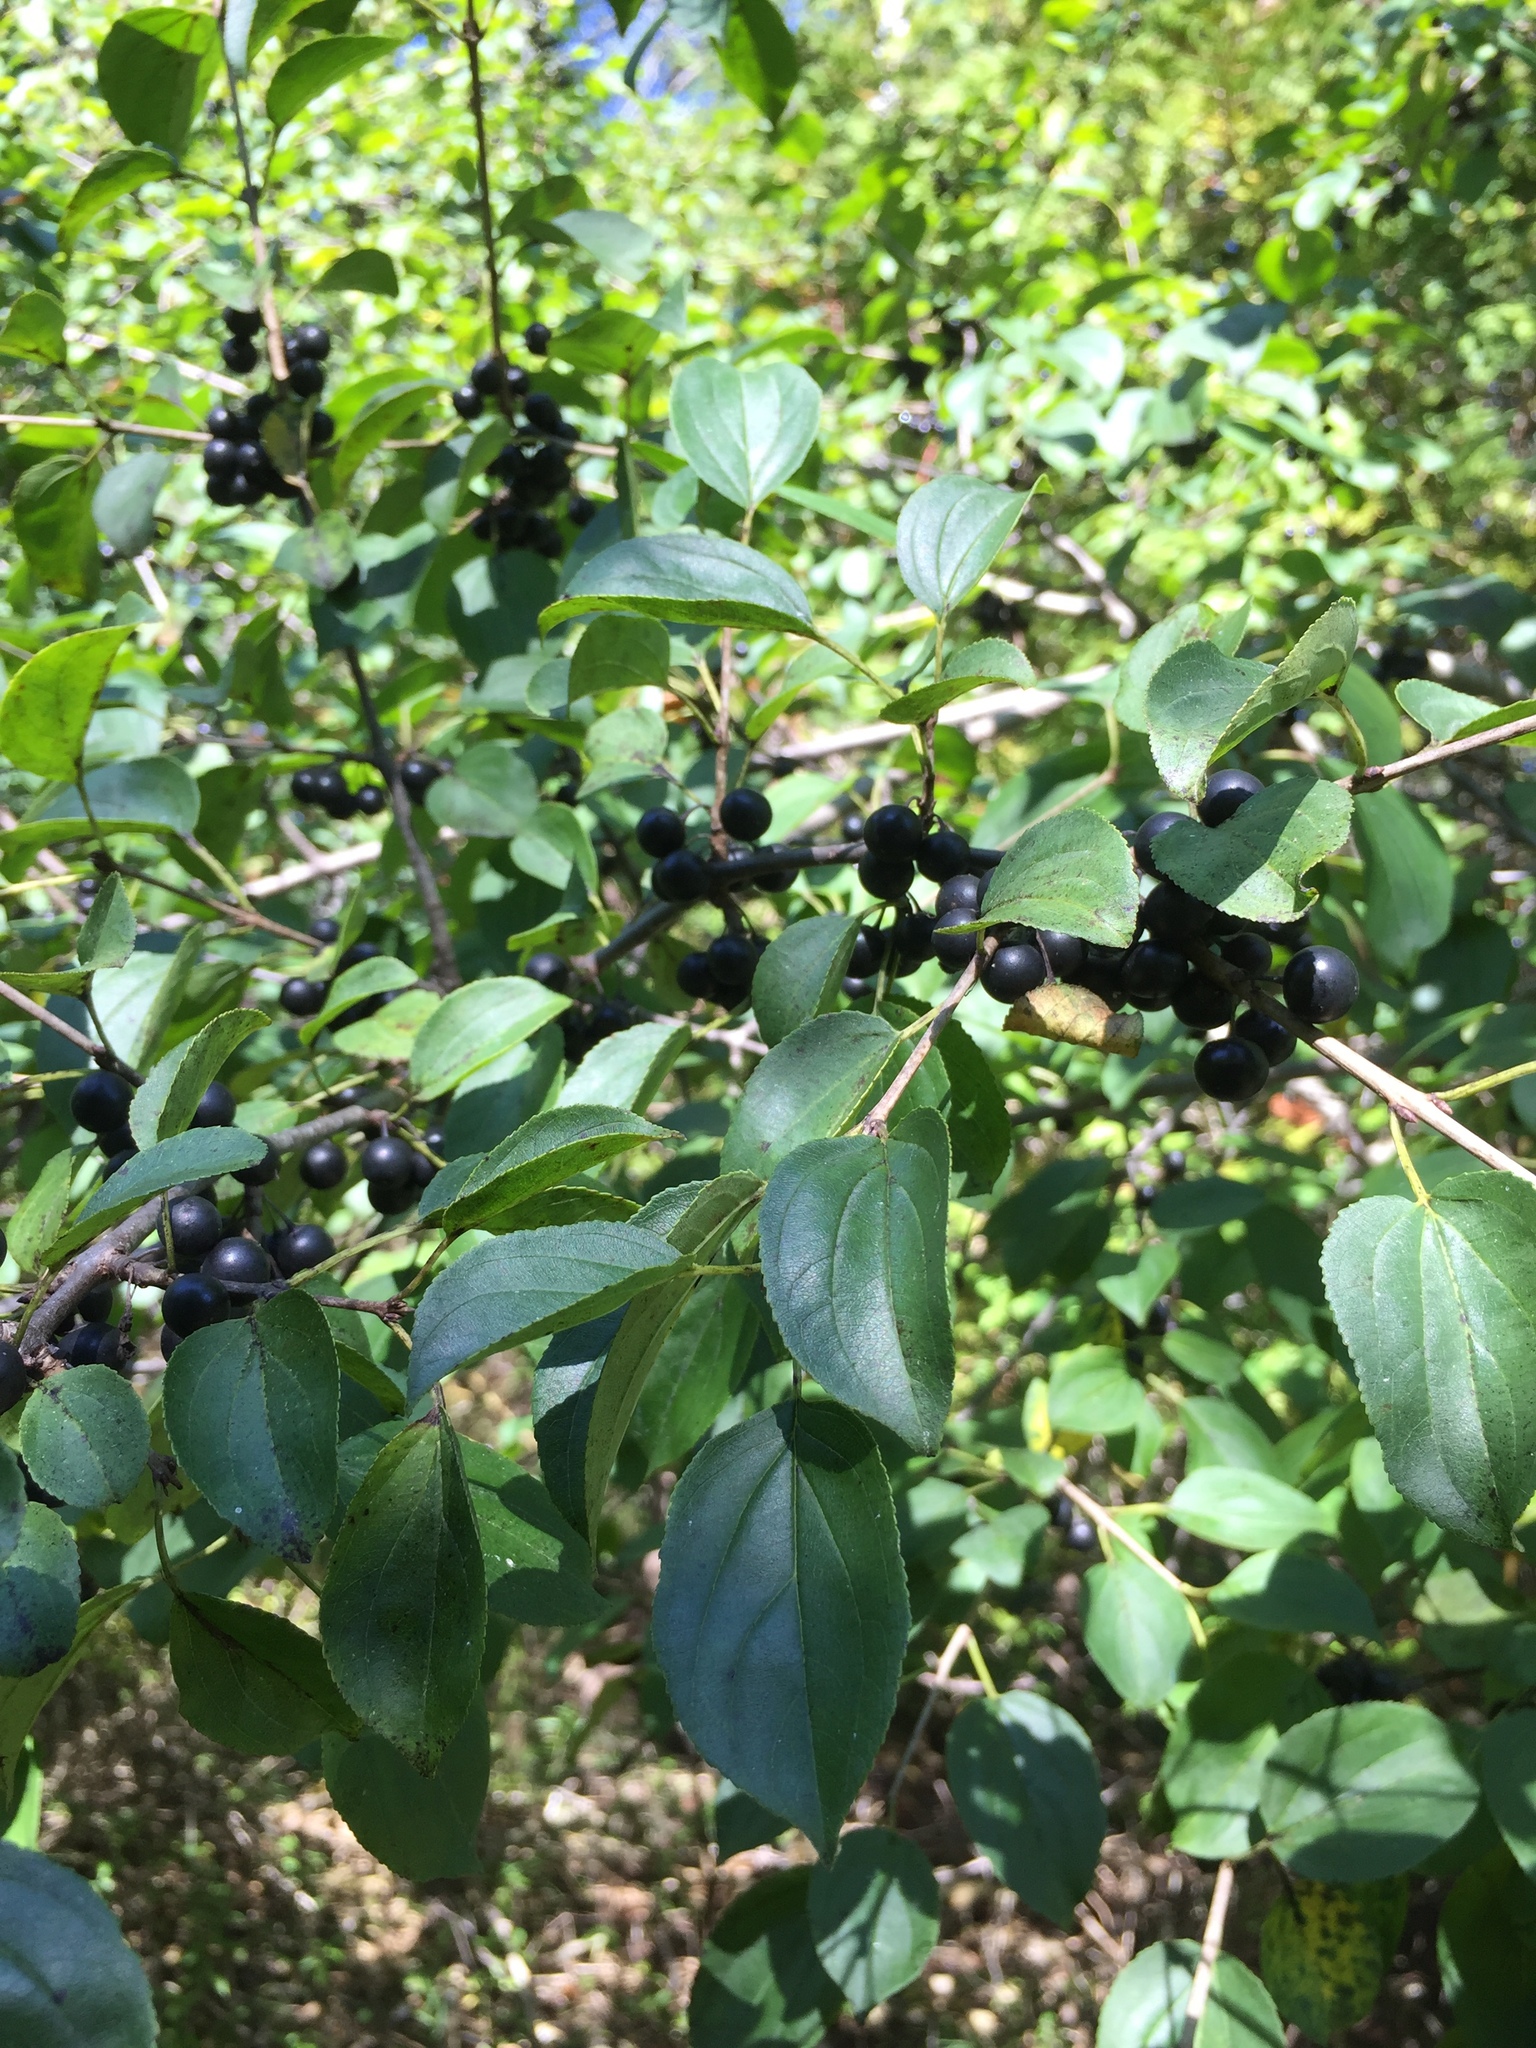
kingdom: Plantae
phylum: Tracheophyta
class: Magnoliopsida
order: Rosales
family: Rhamnaceae
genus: Rhamnus
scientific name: Rhamnus cathartica
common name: Common buckthorn
